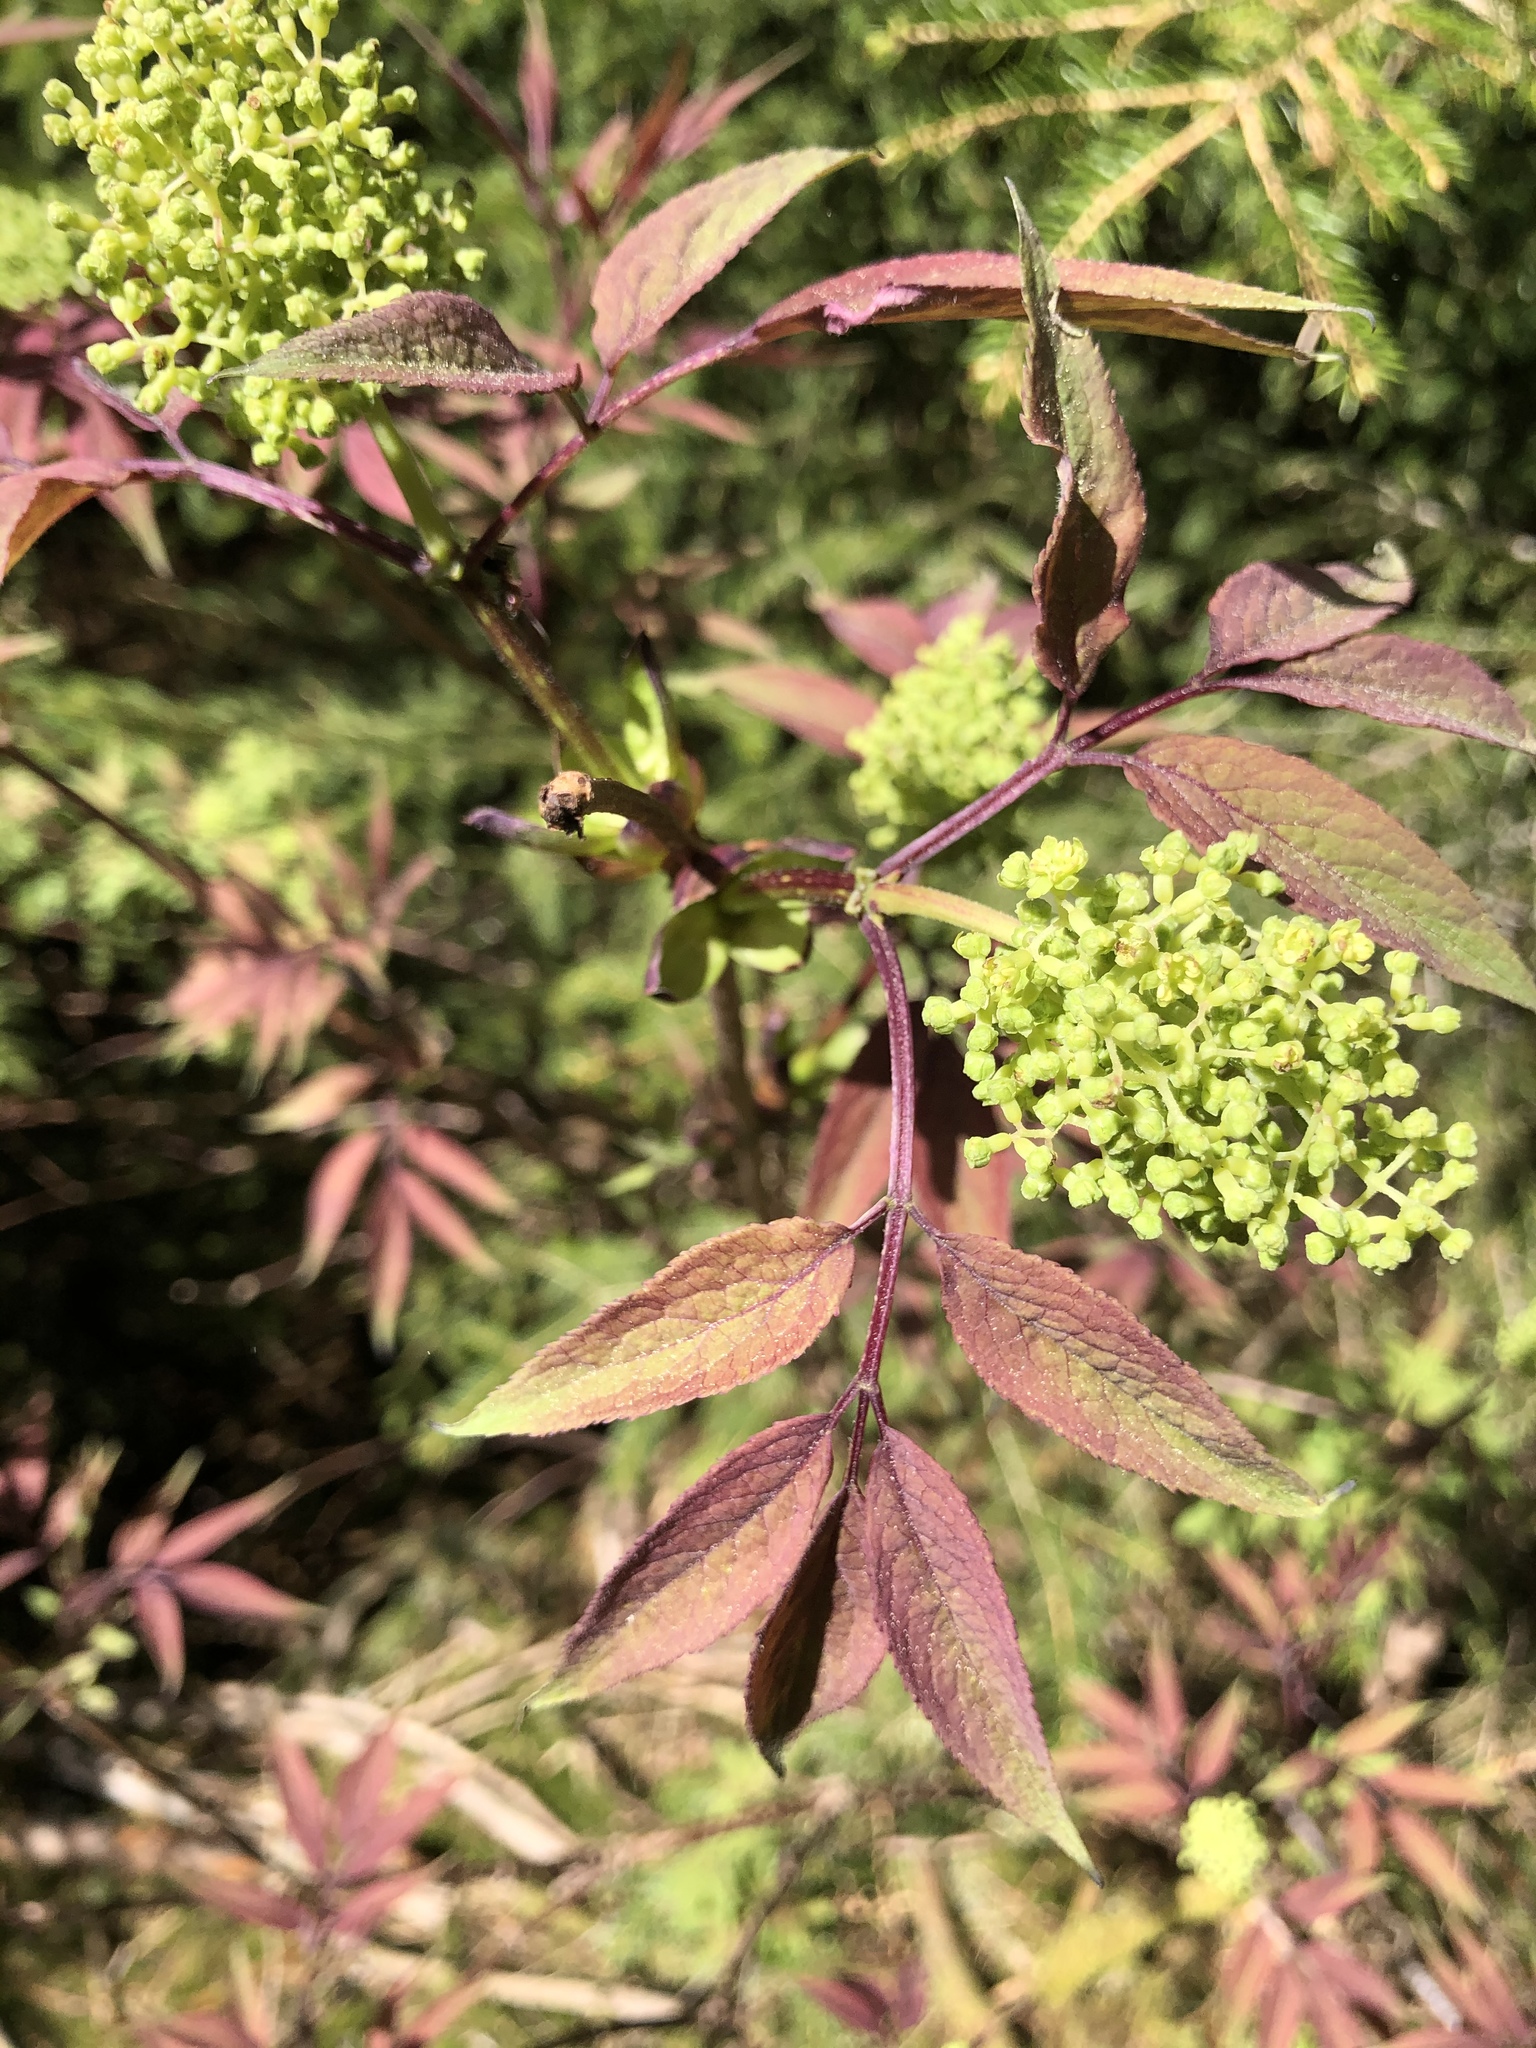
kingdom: Plantae
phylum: Tracheophyta
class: Magnoliopsida
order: Dipsacales
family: Viburnaceae
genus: Sambucus
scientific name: Sambucus racemosa
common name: Red-berried elder
